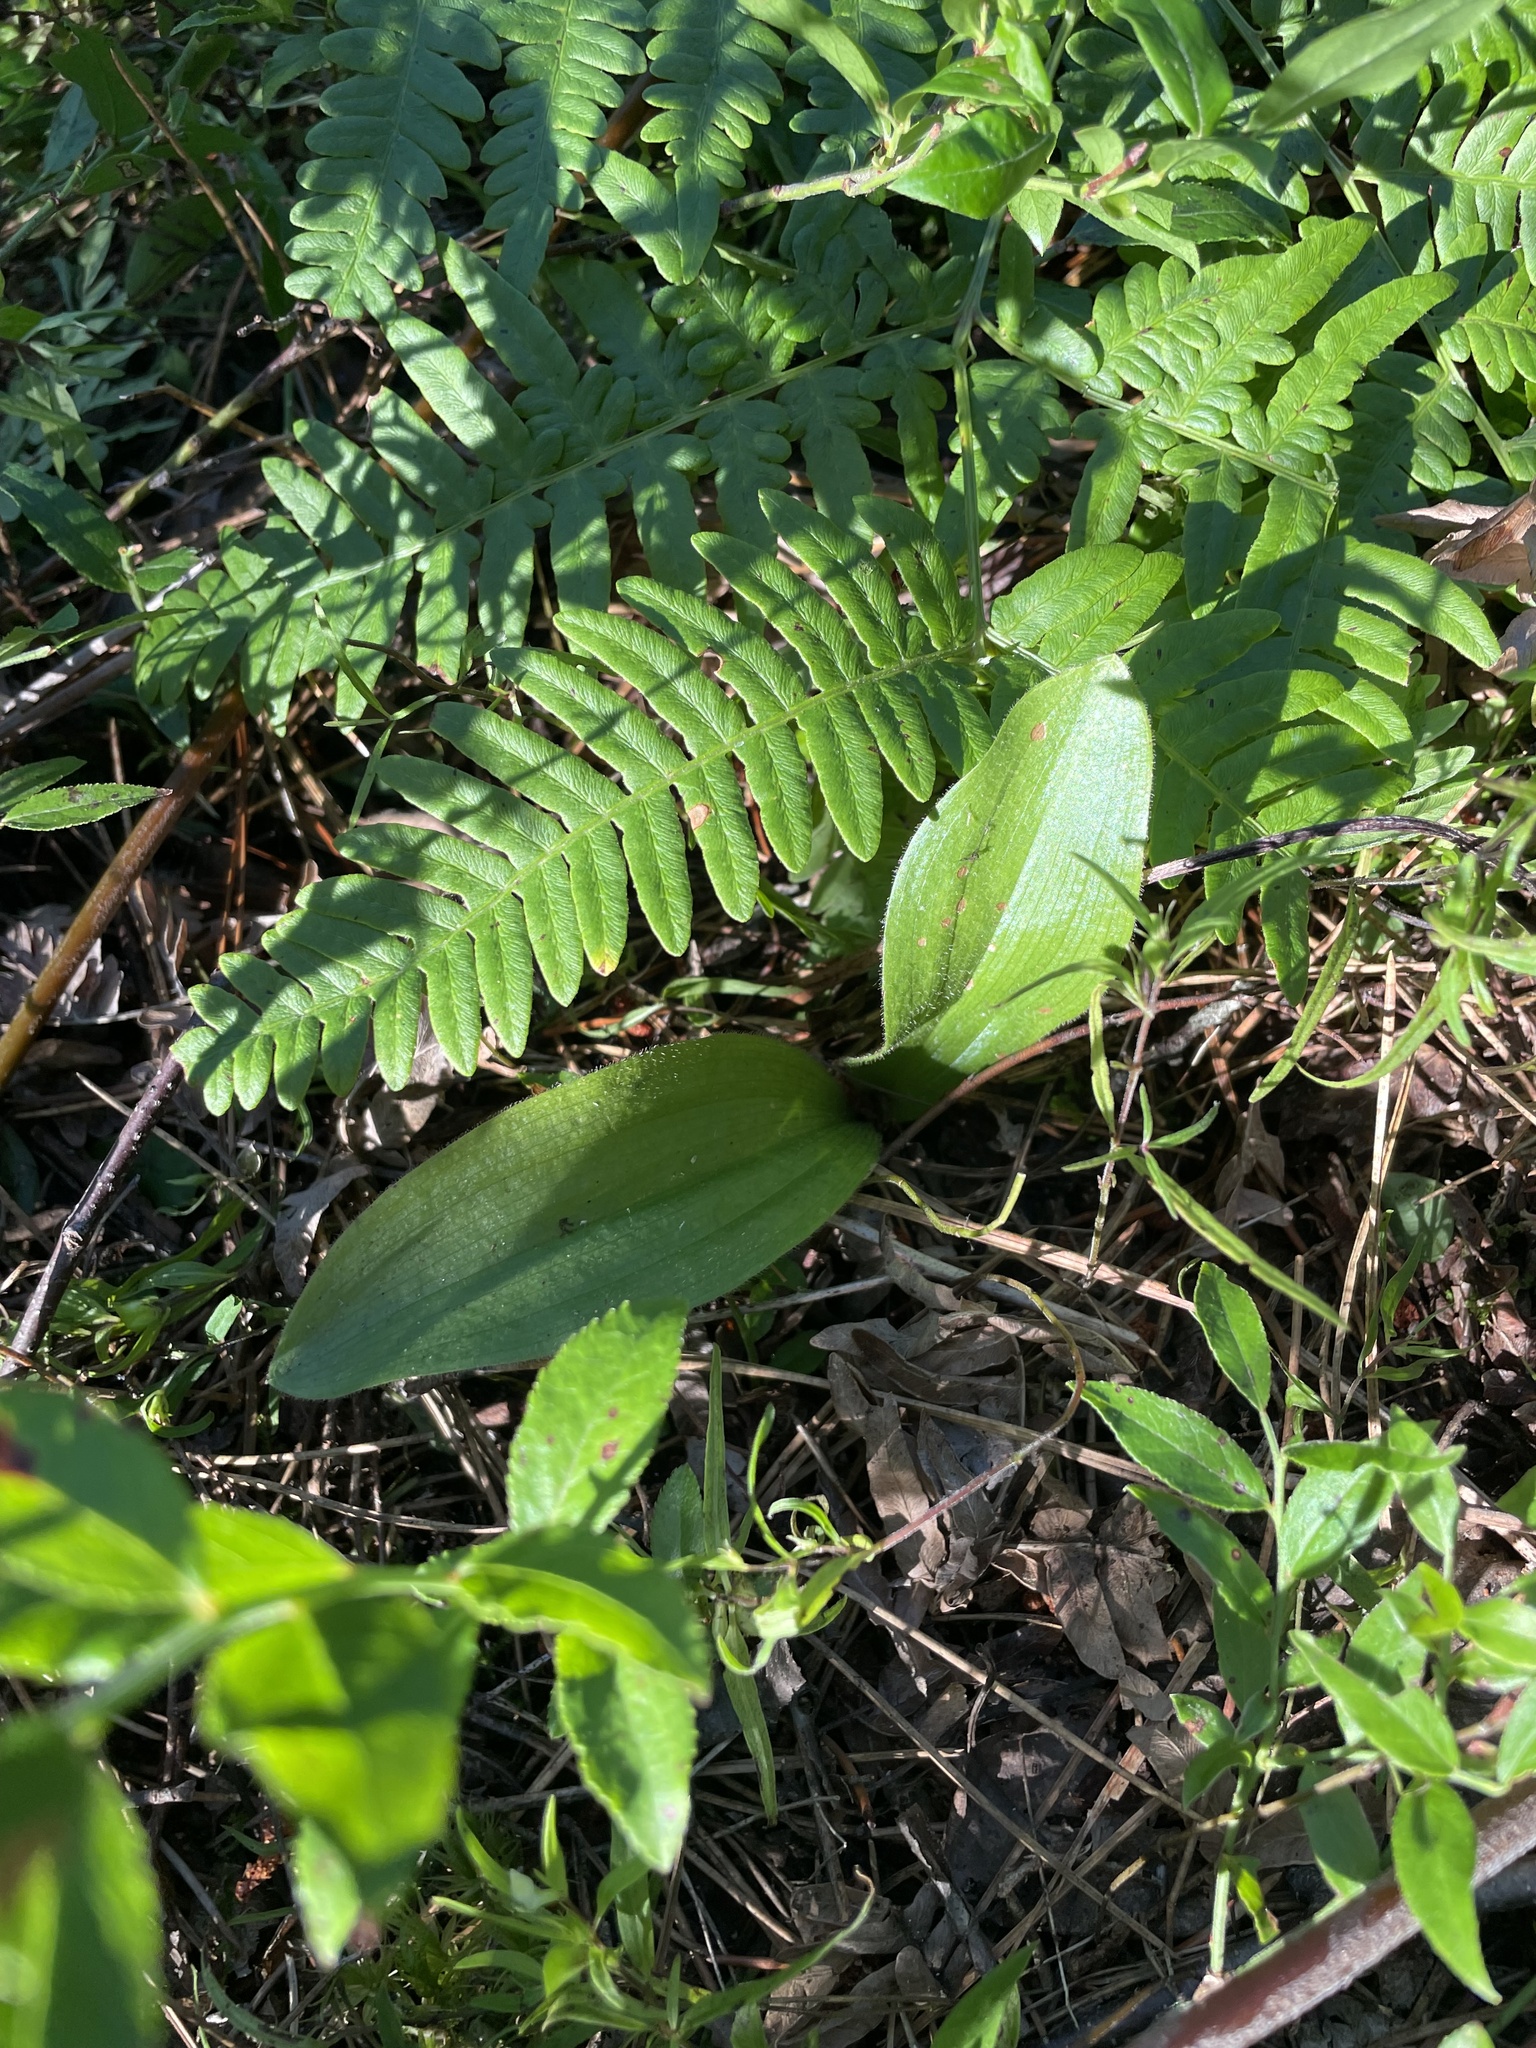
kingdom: Plantae
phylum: Tracheophyta
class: Liliopsida
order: Asparagales
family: Orchidaceae
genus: Cypripedium
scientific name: Cypripedium acaule
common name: Pink lady's-slipper
